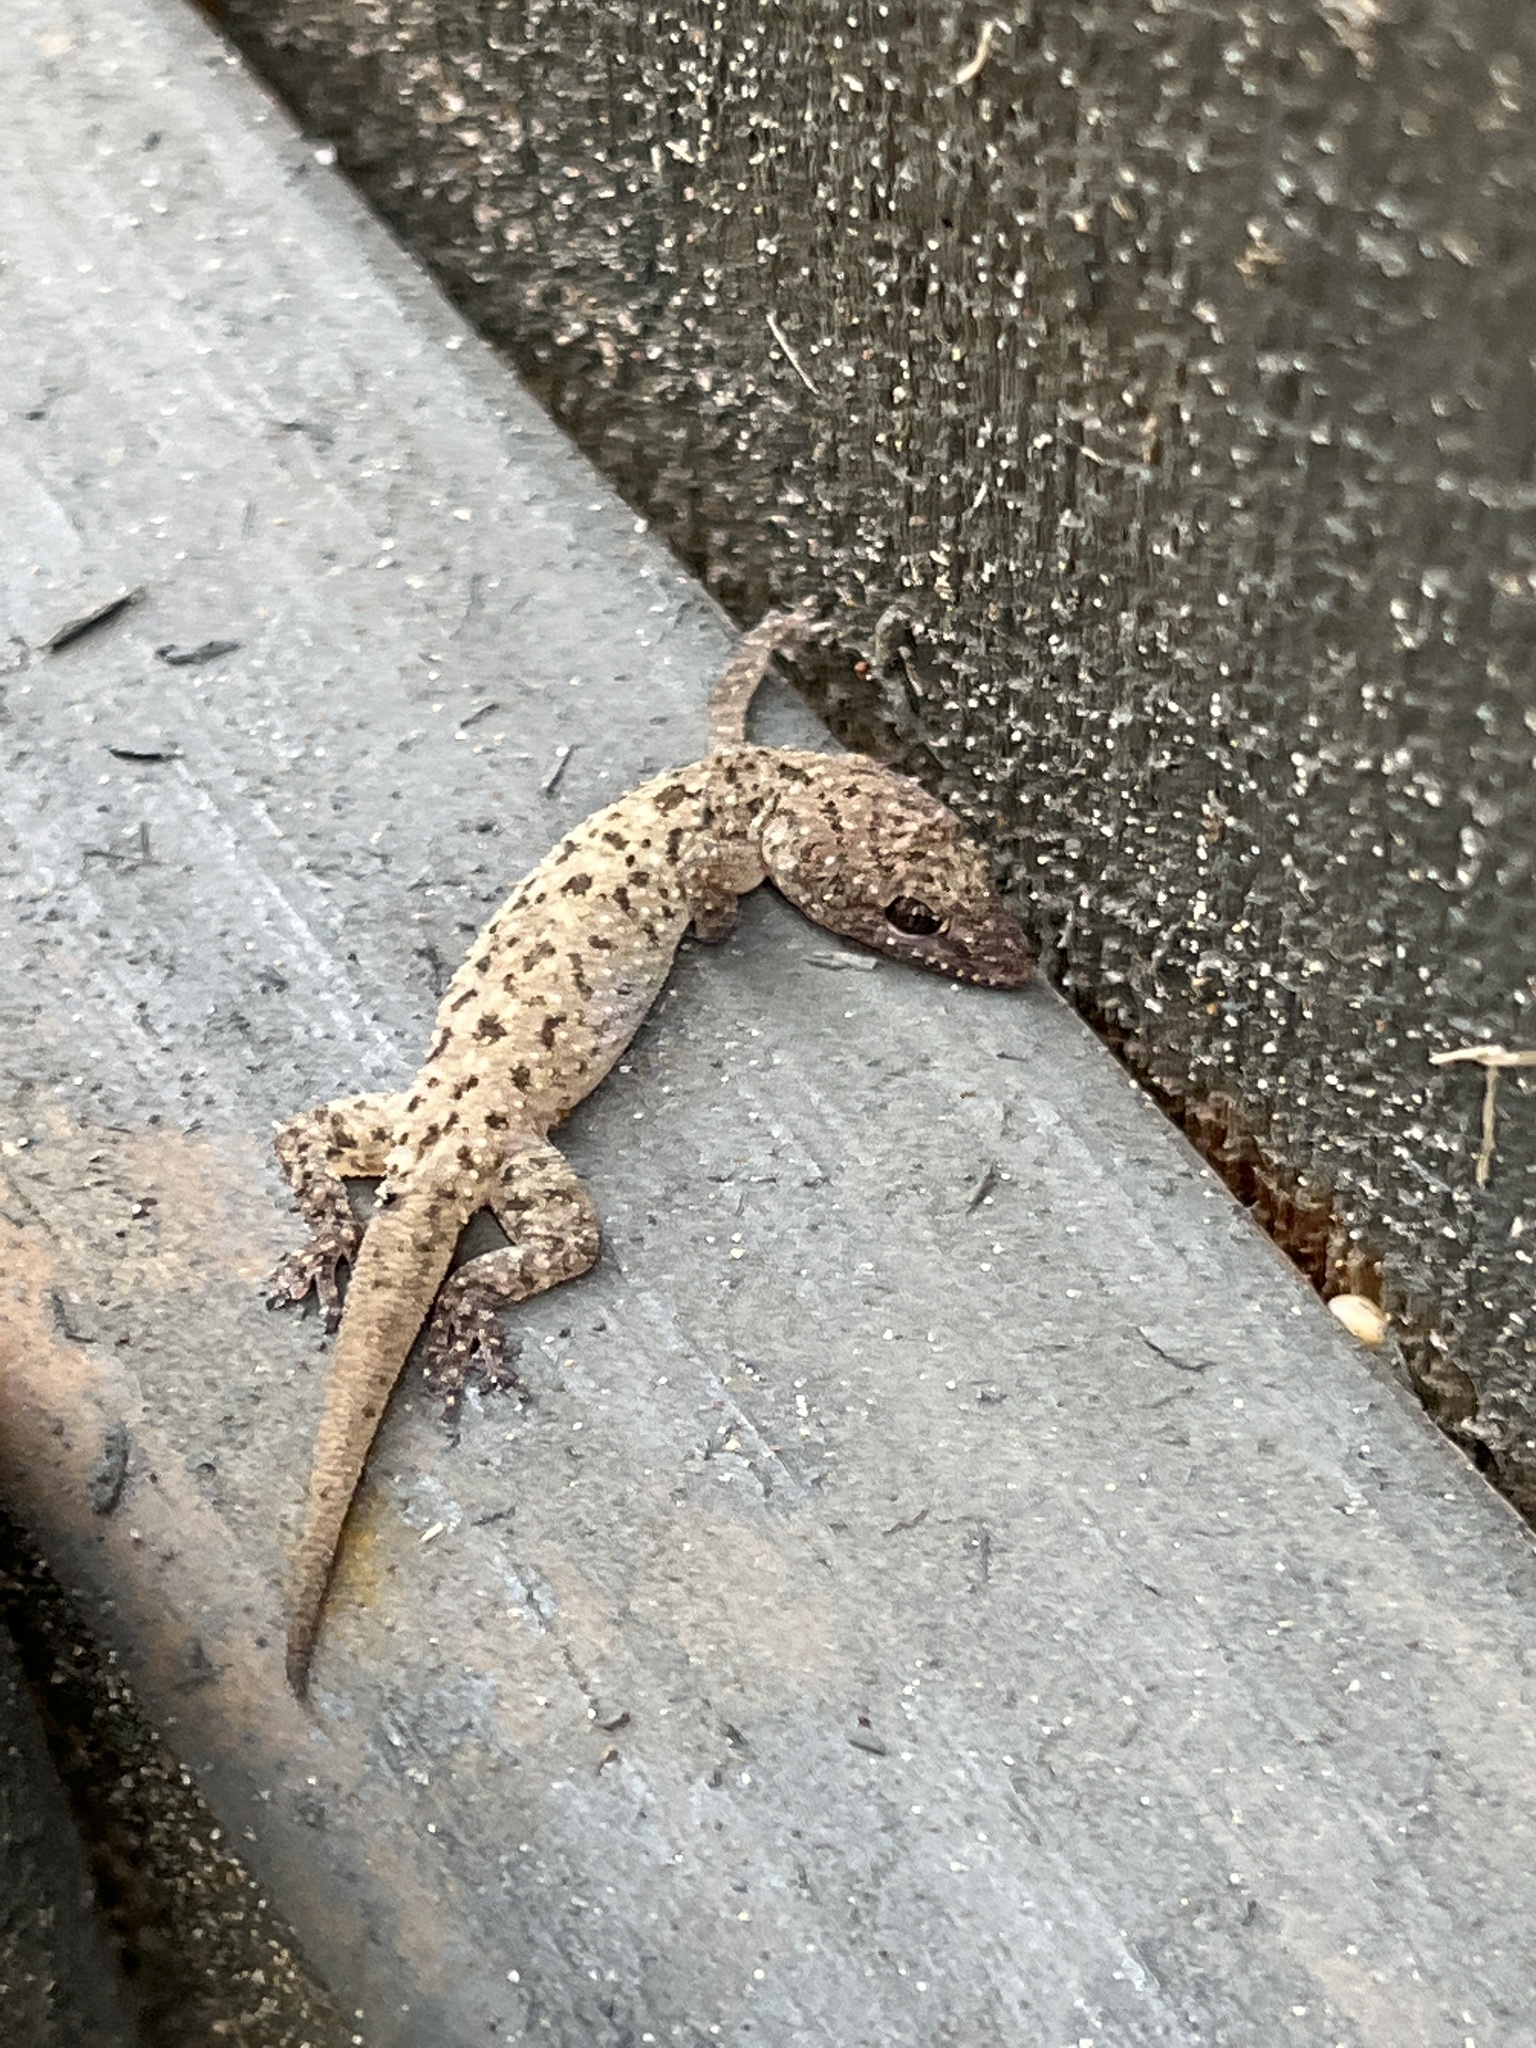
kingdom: Animalia
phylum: Chordata
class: Squamata
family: Gekkonidae
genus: Hemidactylus
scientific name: Hemidactylus parvimaculatus
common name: Spotted house gecko
